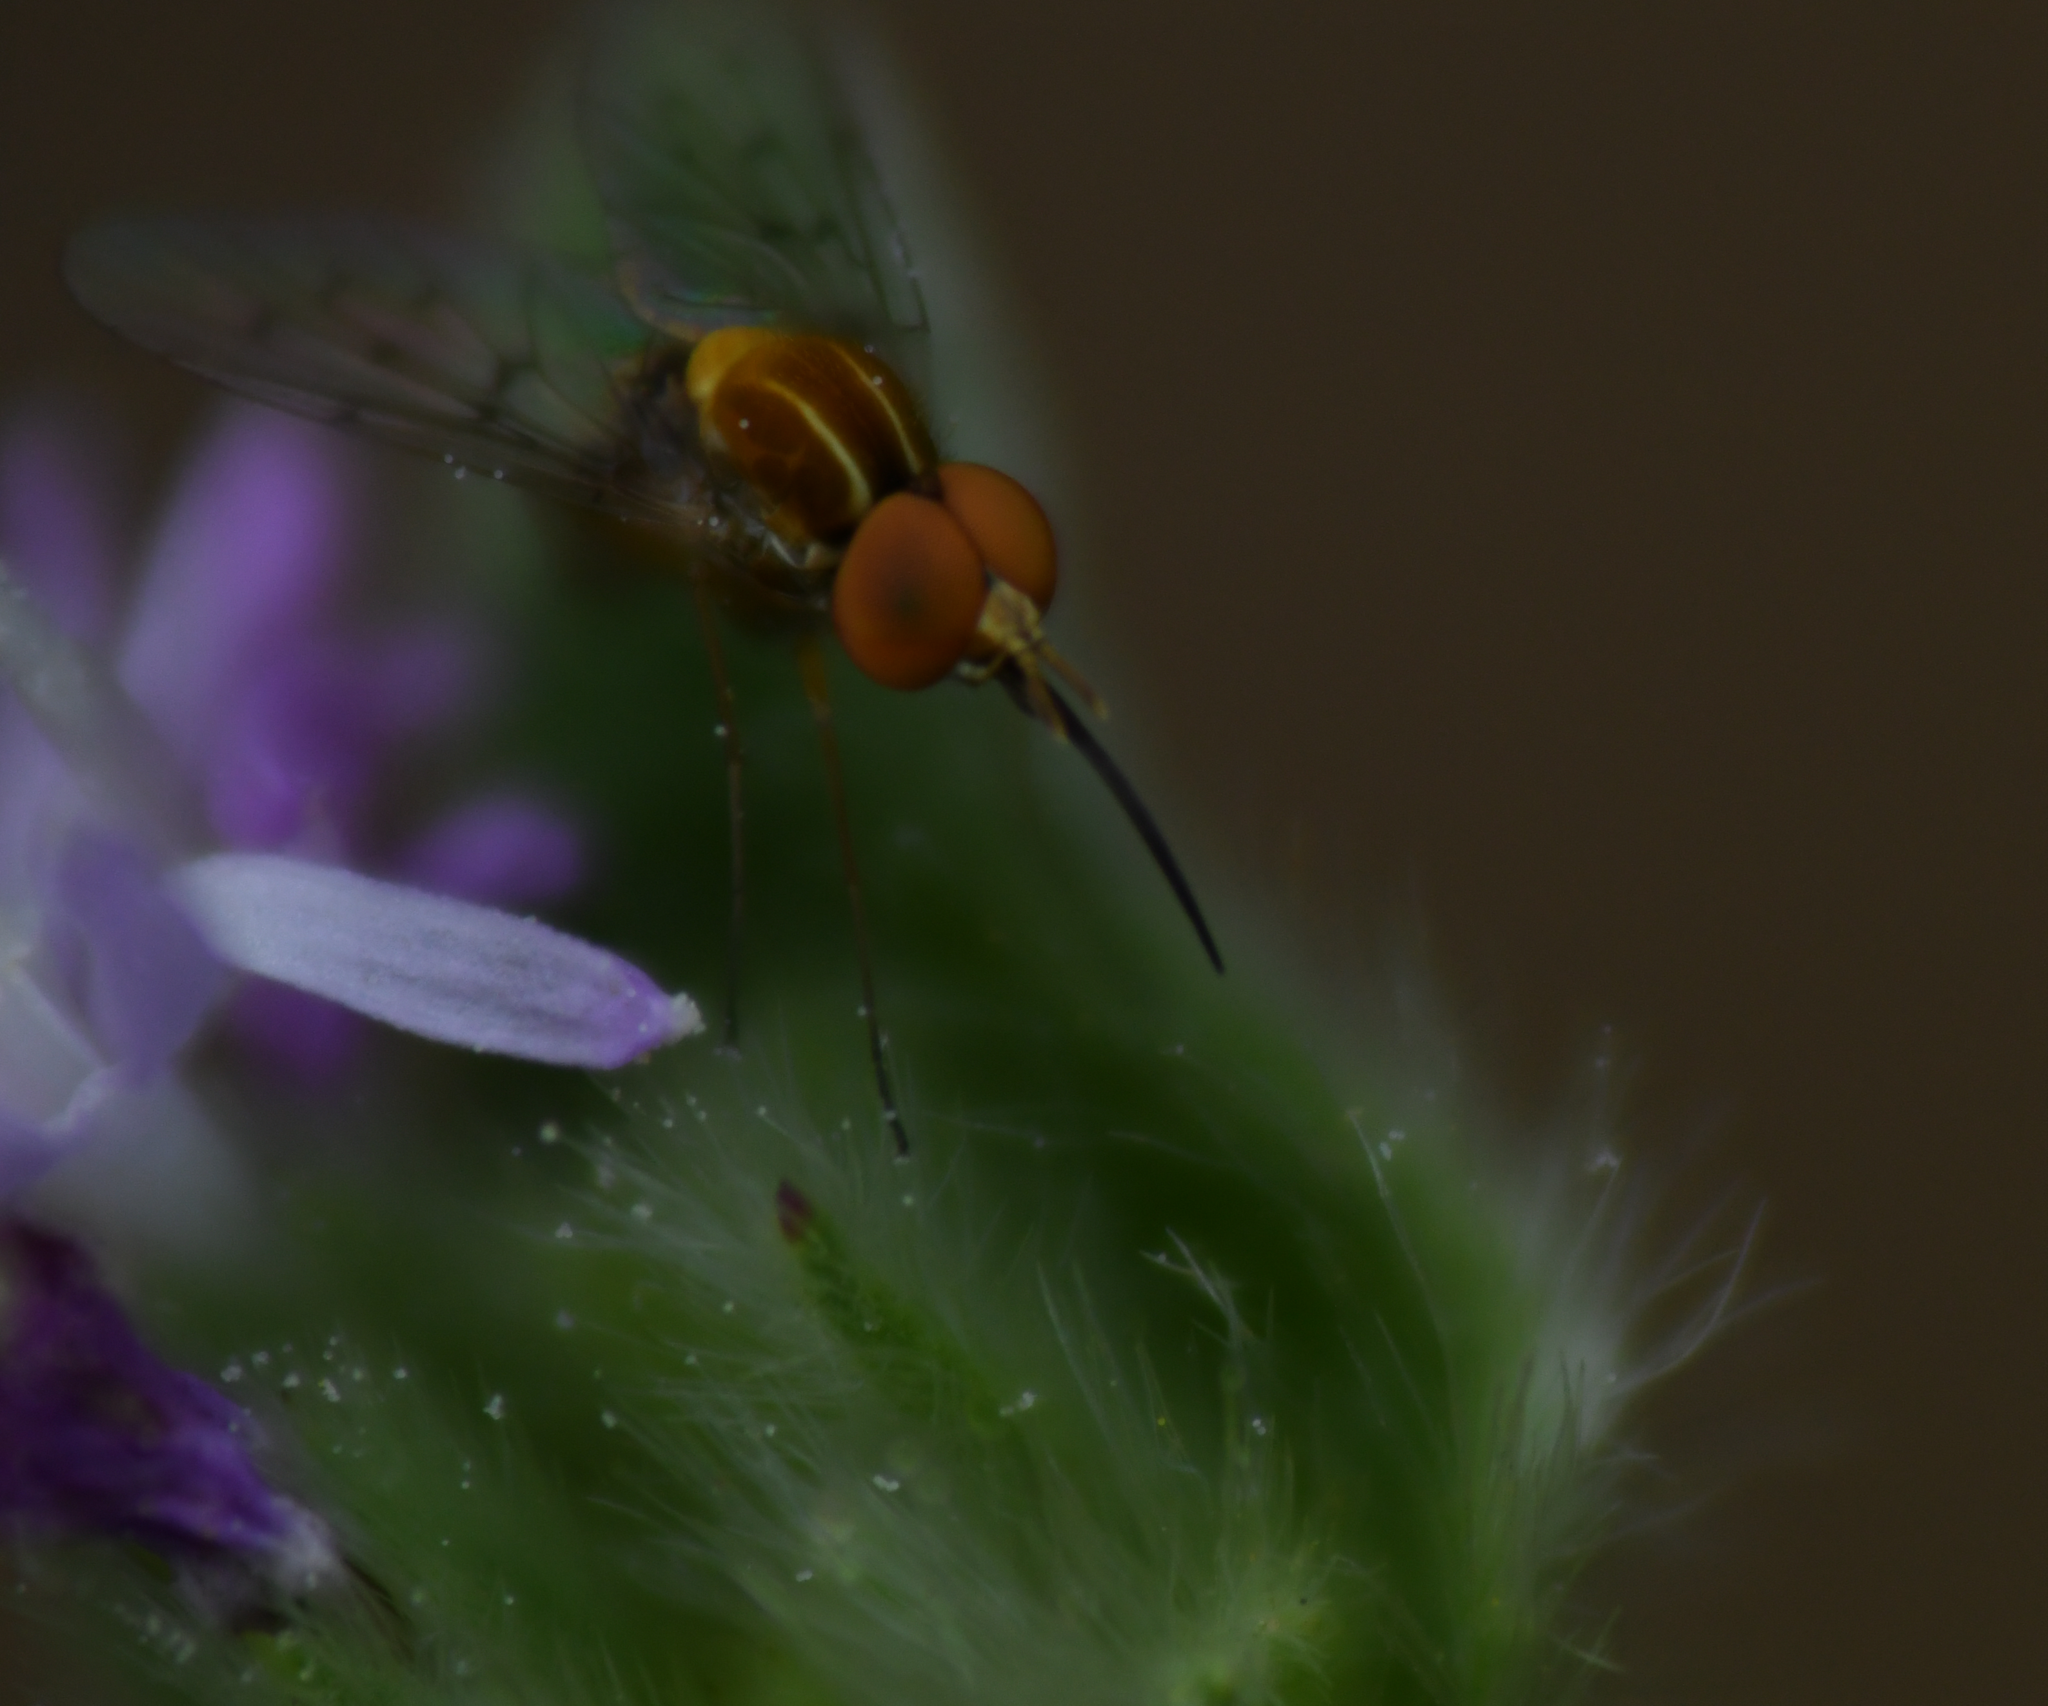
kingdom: Animalia
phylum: Arthropoda
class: Insecta
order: Diptera
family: Bombyliidae
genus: Poecilognathus
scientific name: Poecilognathus sulphureus
